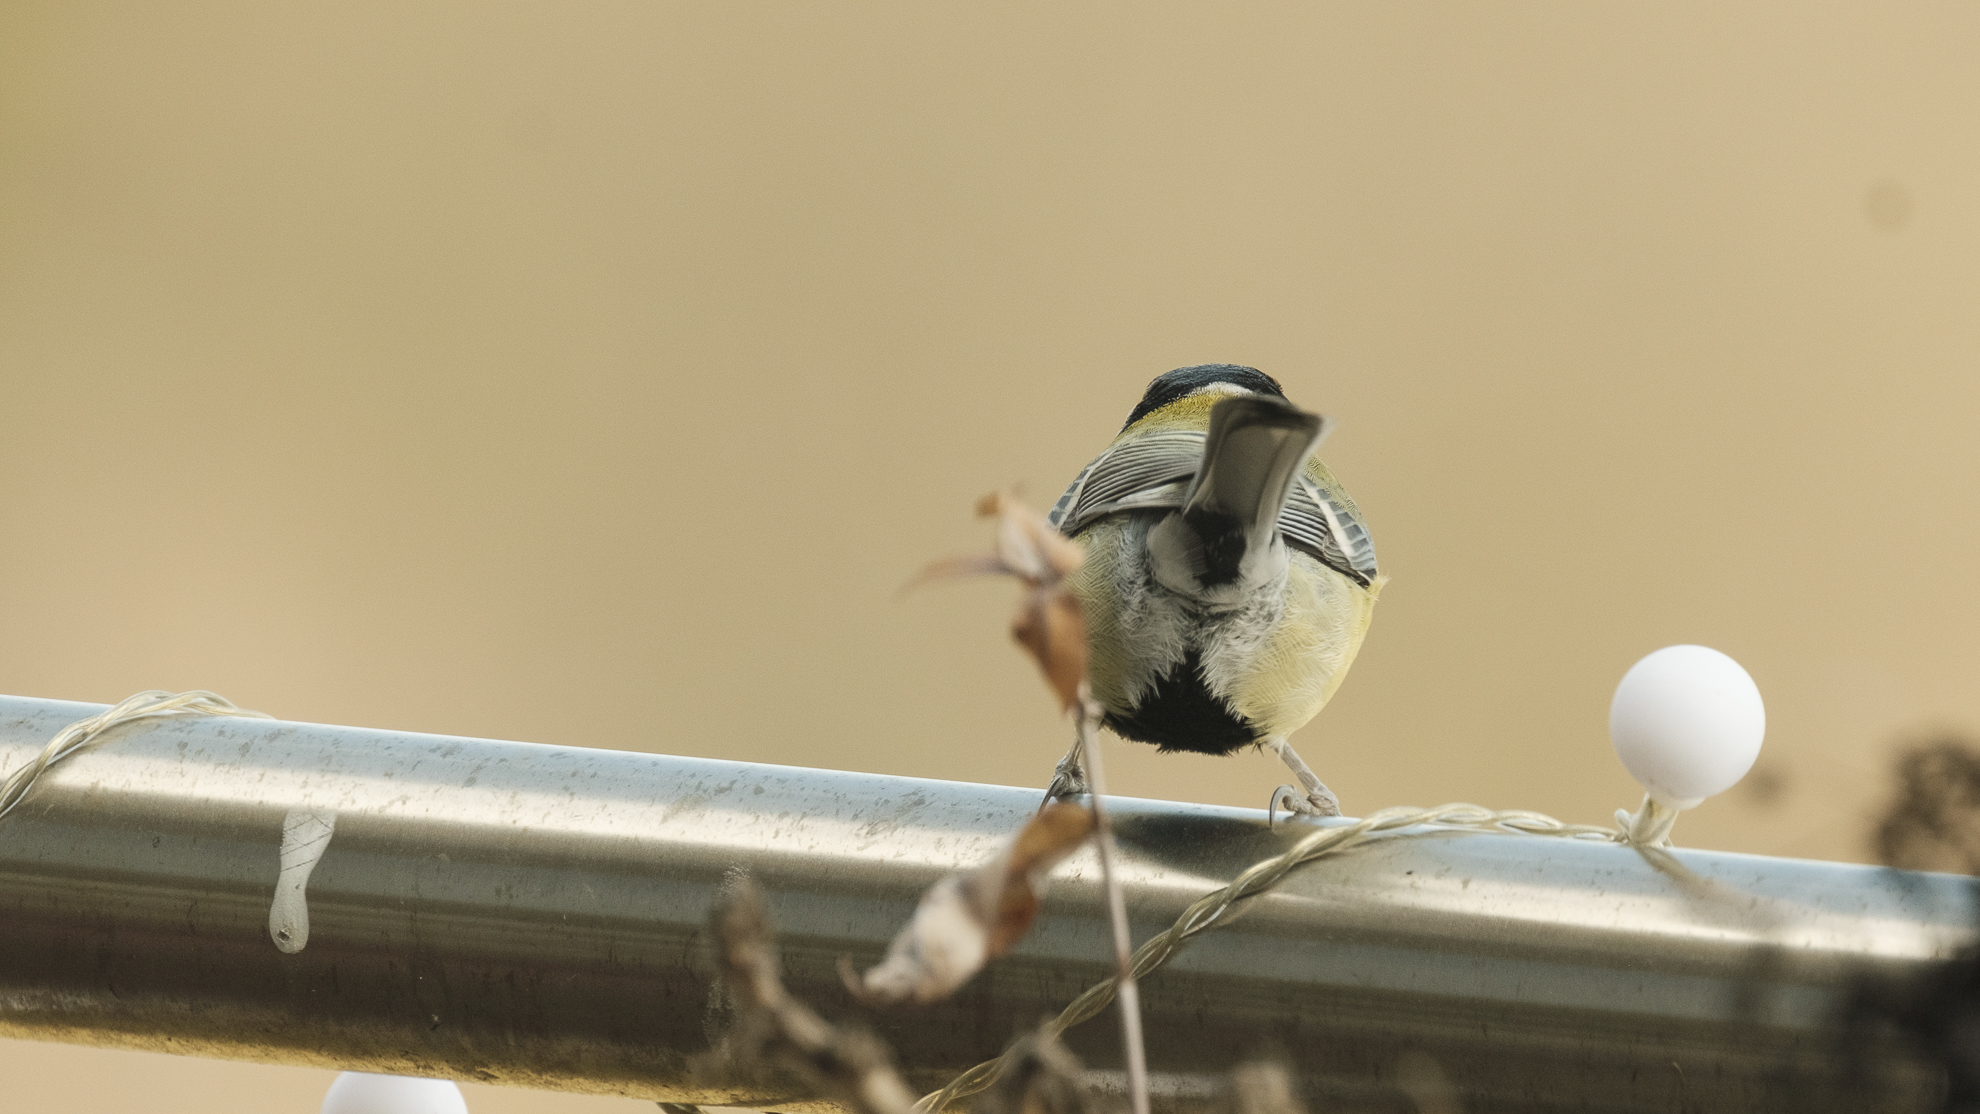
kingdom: Animalia
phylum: Chordata
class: Aves
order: Passeriformes
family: Paridae
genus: Parus
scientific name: Parus major
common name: Great tit
